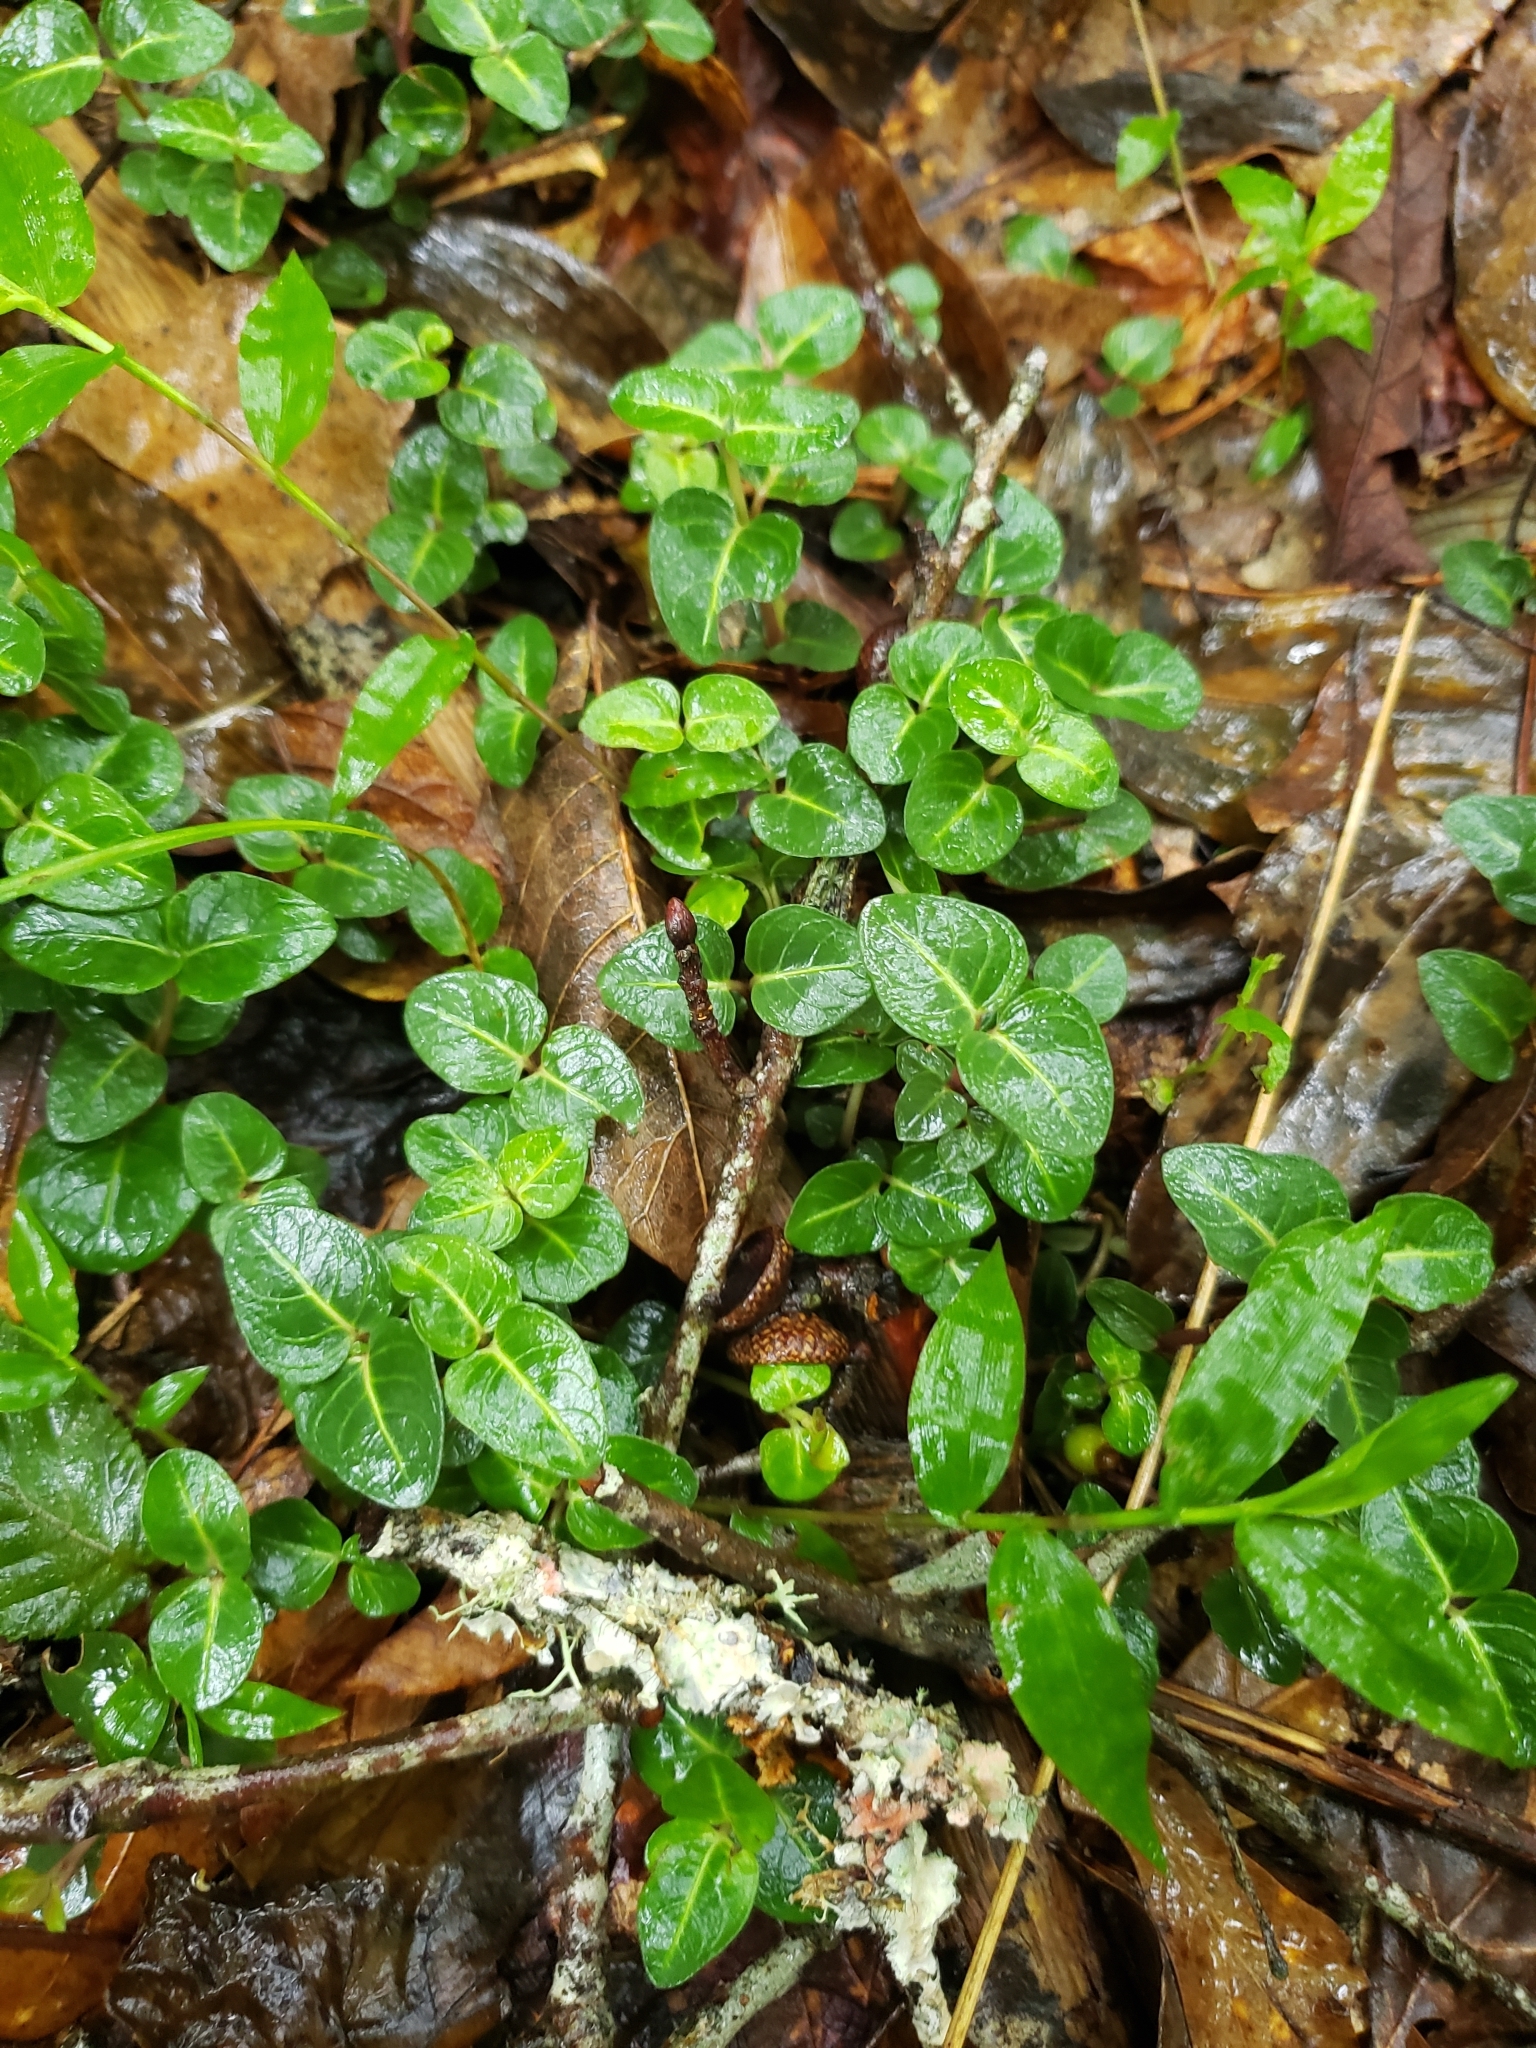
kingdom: Plantae
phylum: Tracheophyta
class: Magnoliopsida
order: Gentianales
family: Rubiaceae
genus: Mitchella
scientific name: Mitchella repens
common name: Partridge-berry
